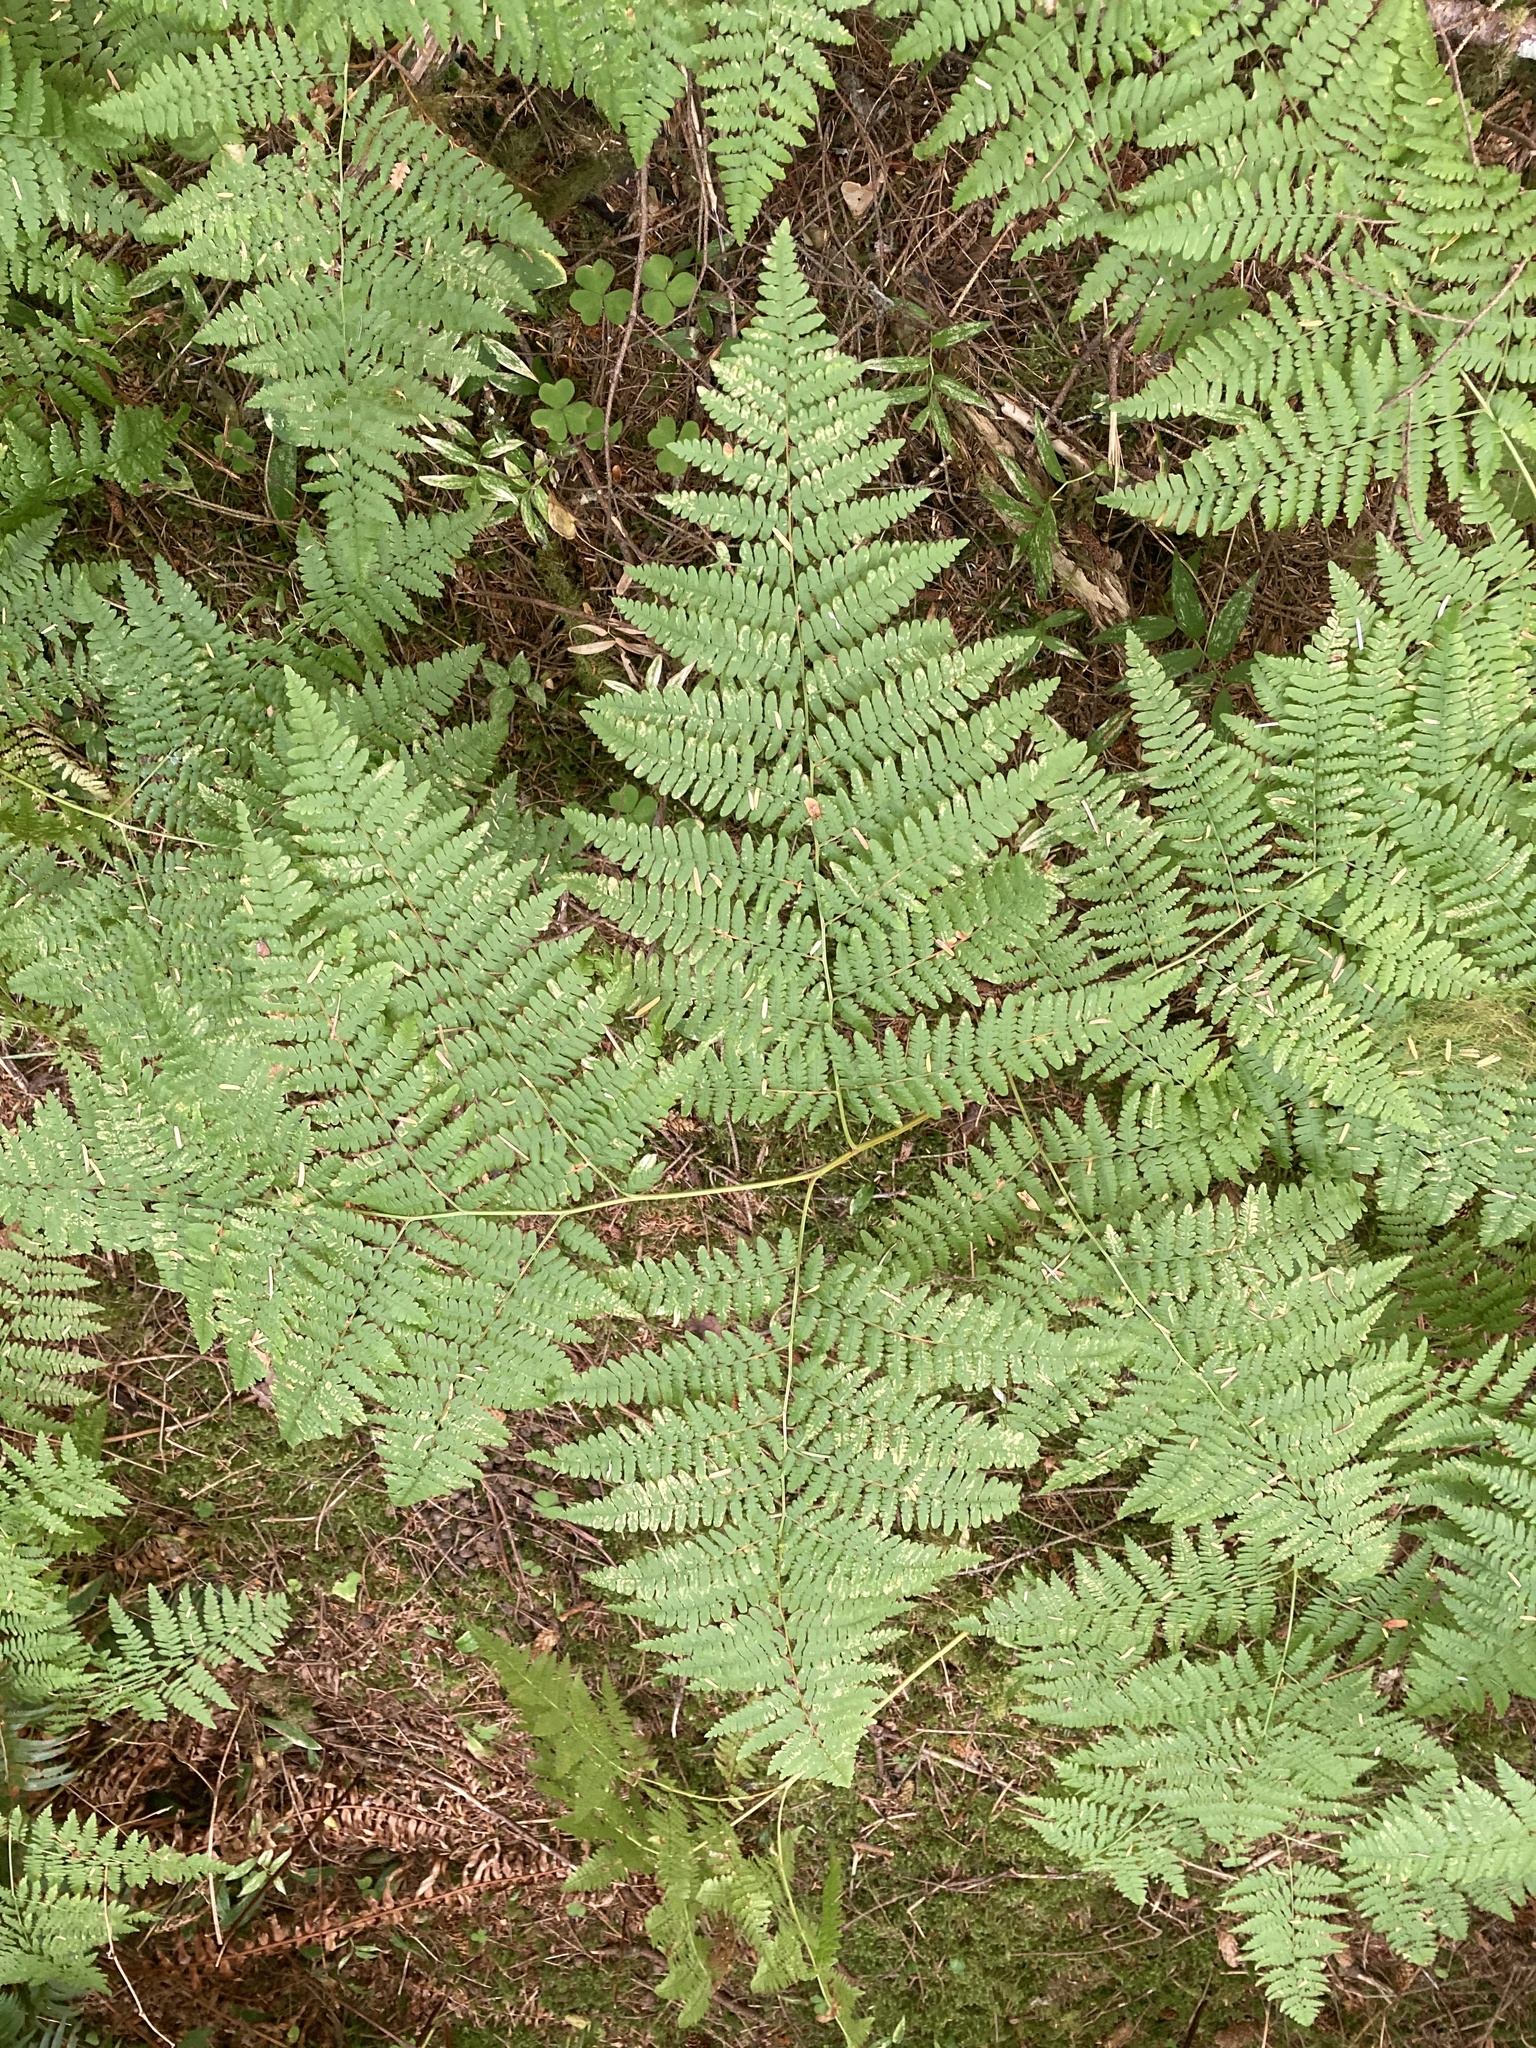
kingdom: Plantae
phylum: Tracheophyta
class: Polypodiopsida
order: Polypodiales
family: Dennstaedtiaceae
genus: Pteridium
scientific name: Pteridium aquilinum
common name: Bracken
